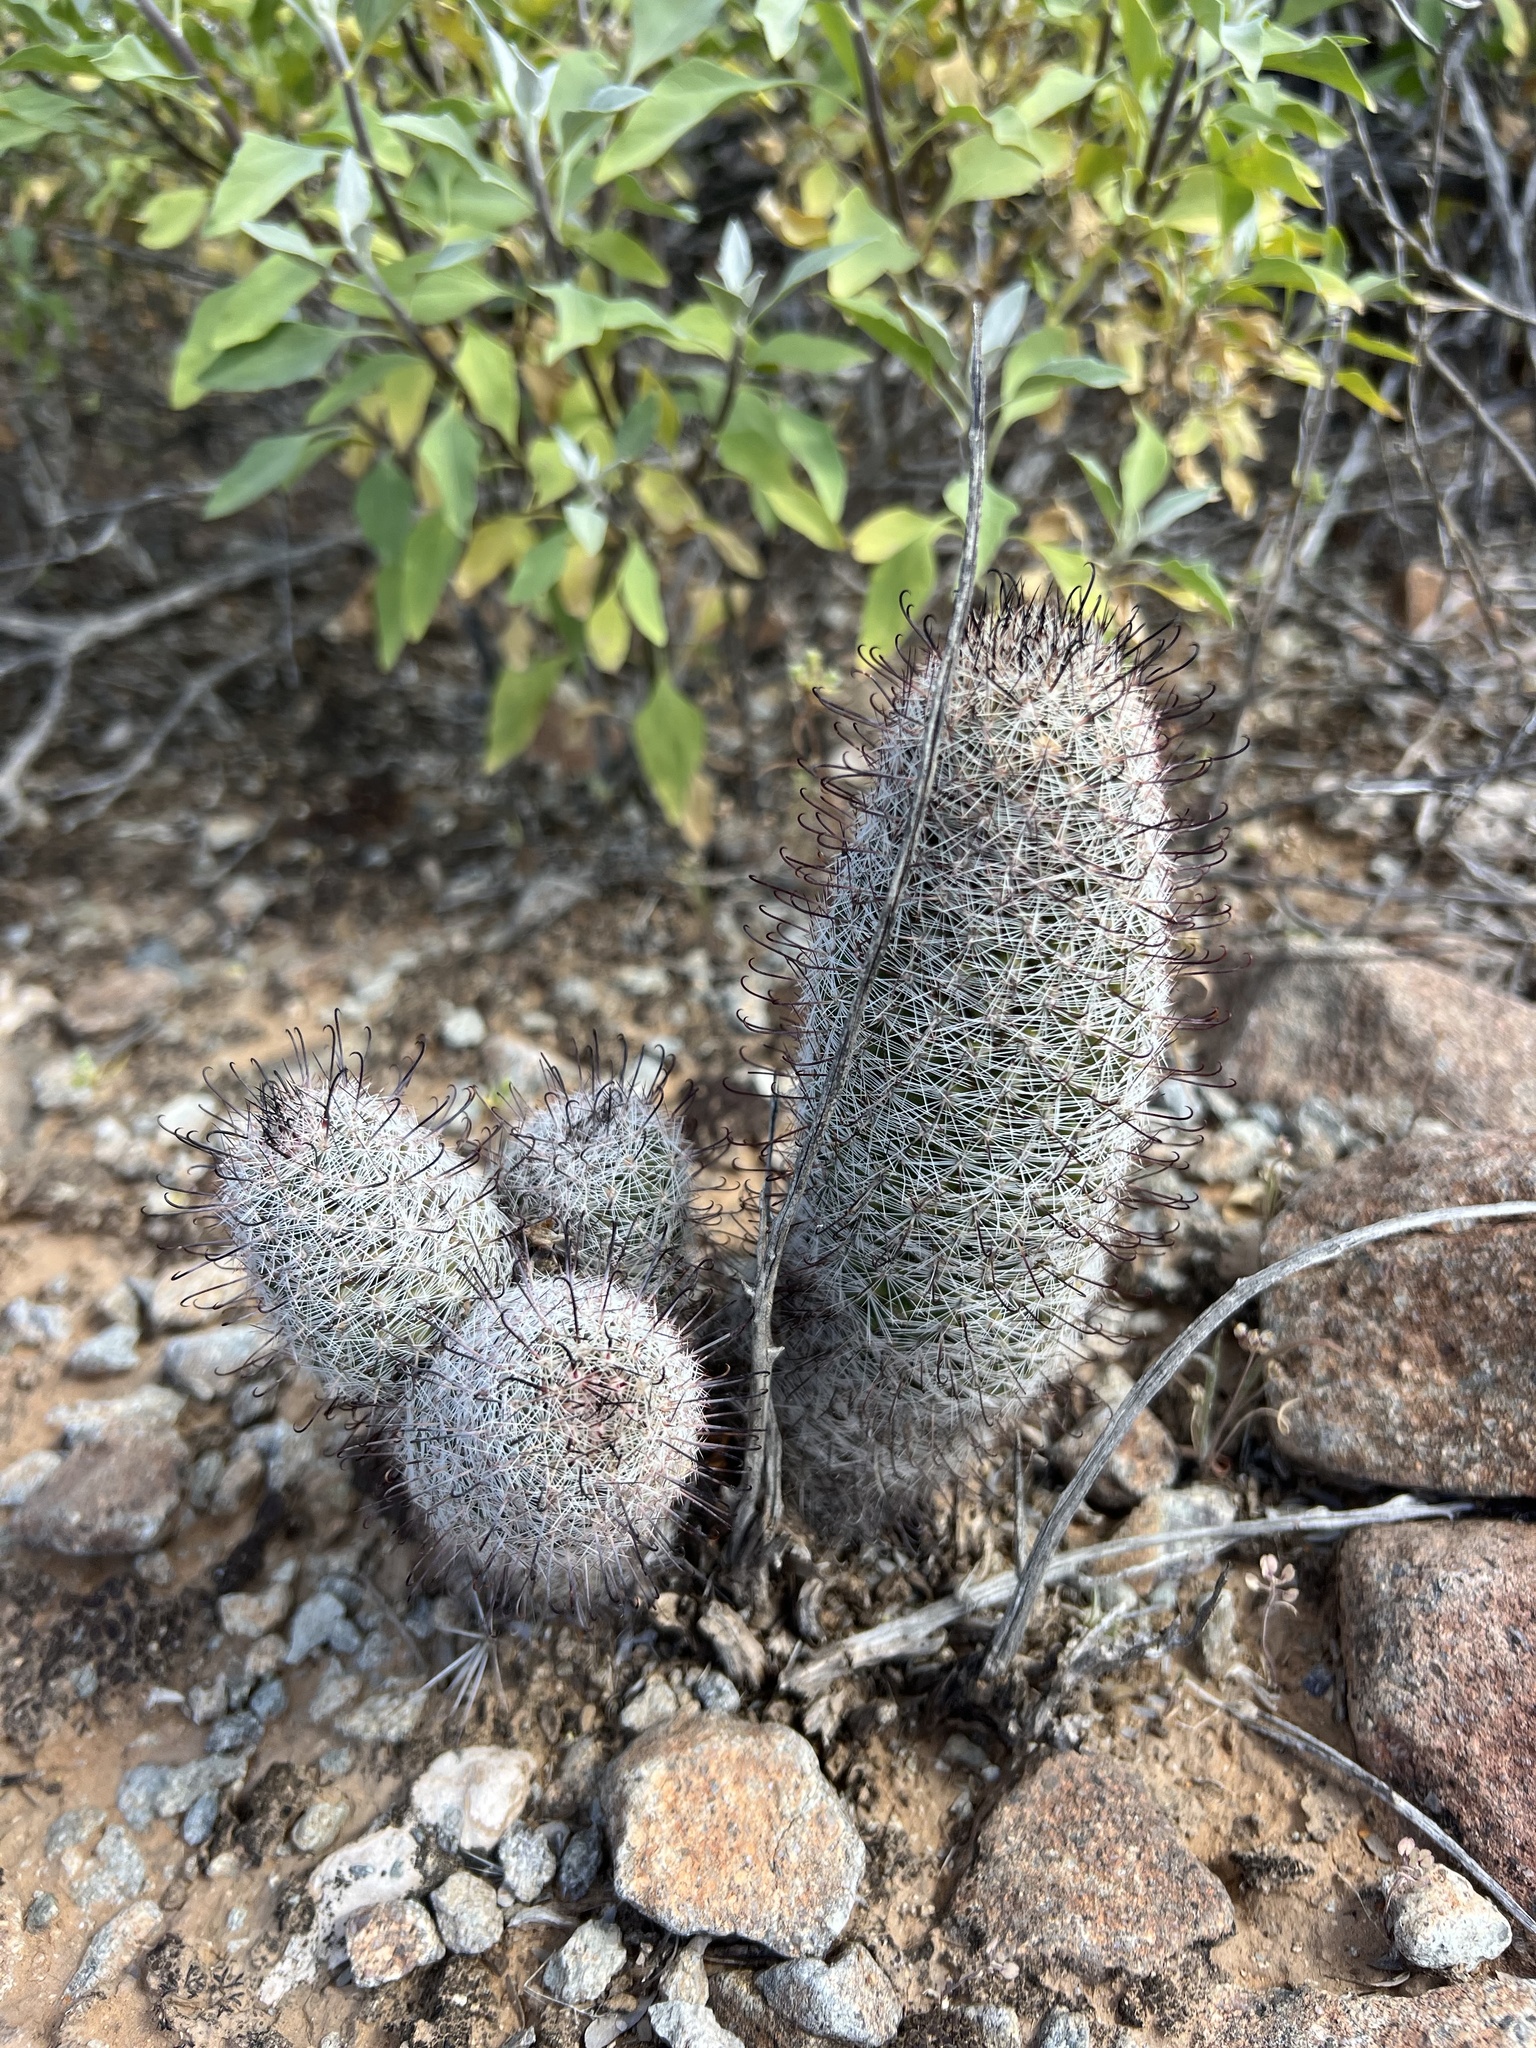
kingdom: Plantae
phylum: Tracheophyta
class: Magnoliopsida
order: Caryophyllales
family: Cactaceae
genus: Cochemiea
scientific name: Cochemiea grahamii
